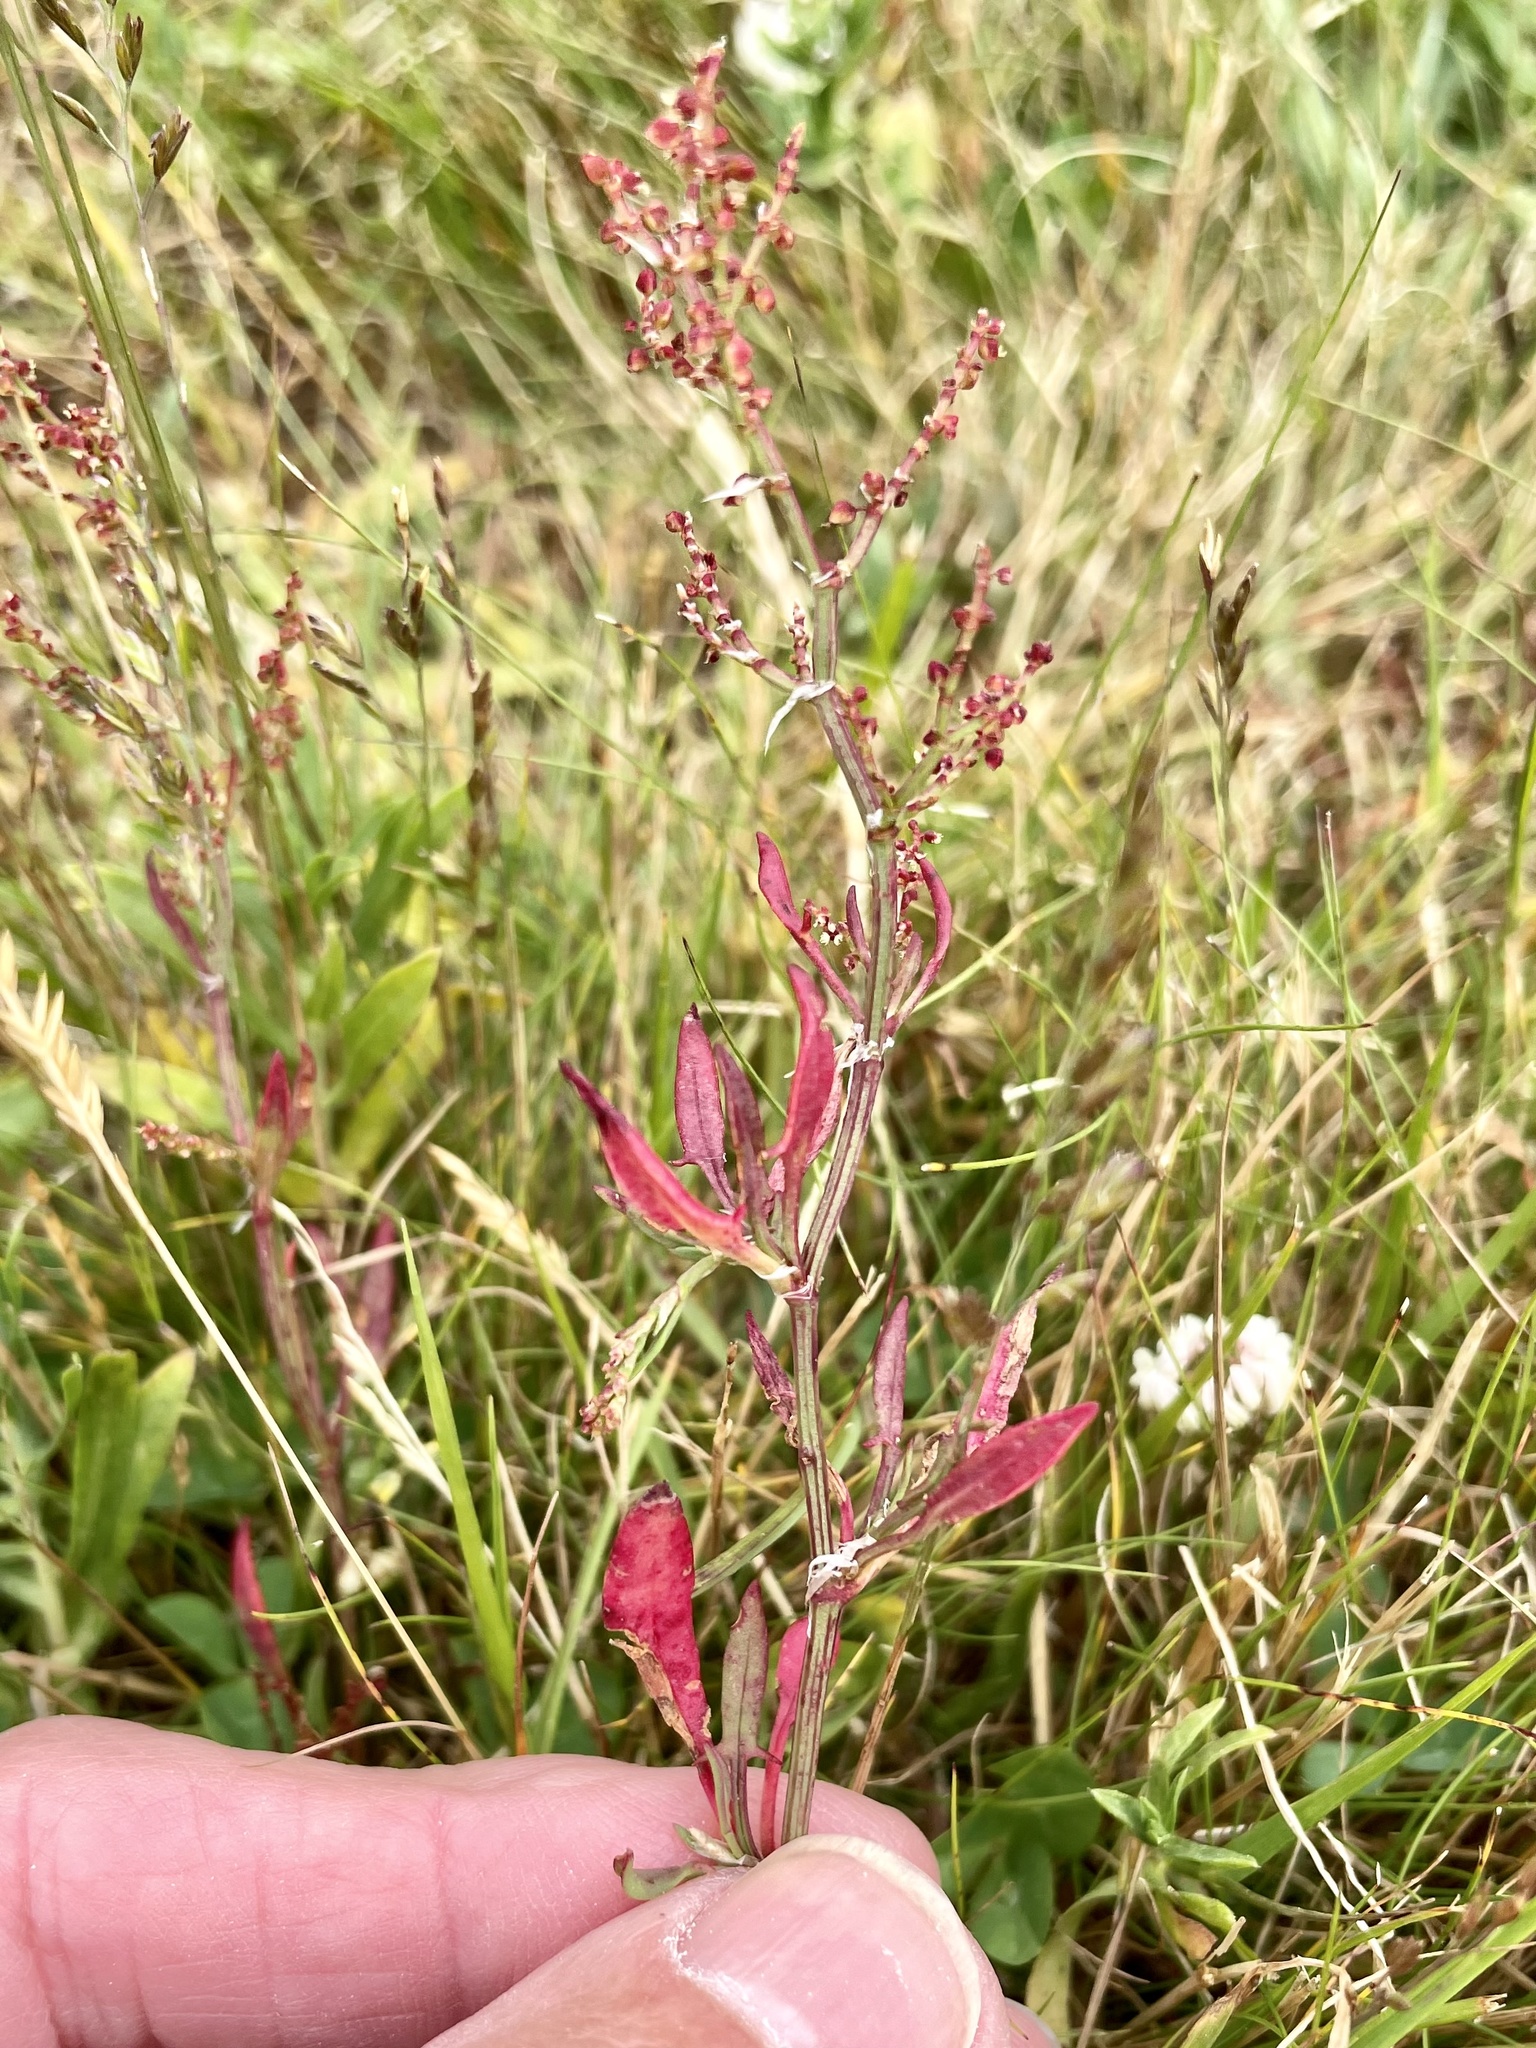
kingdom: Plantae
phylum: Tracheophyta
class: Magnoliopsida
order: Caryophyllales
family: Polygonaceae
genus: Rumex
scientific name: Rumex acetosella
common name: Common sheep sorrel
